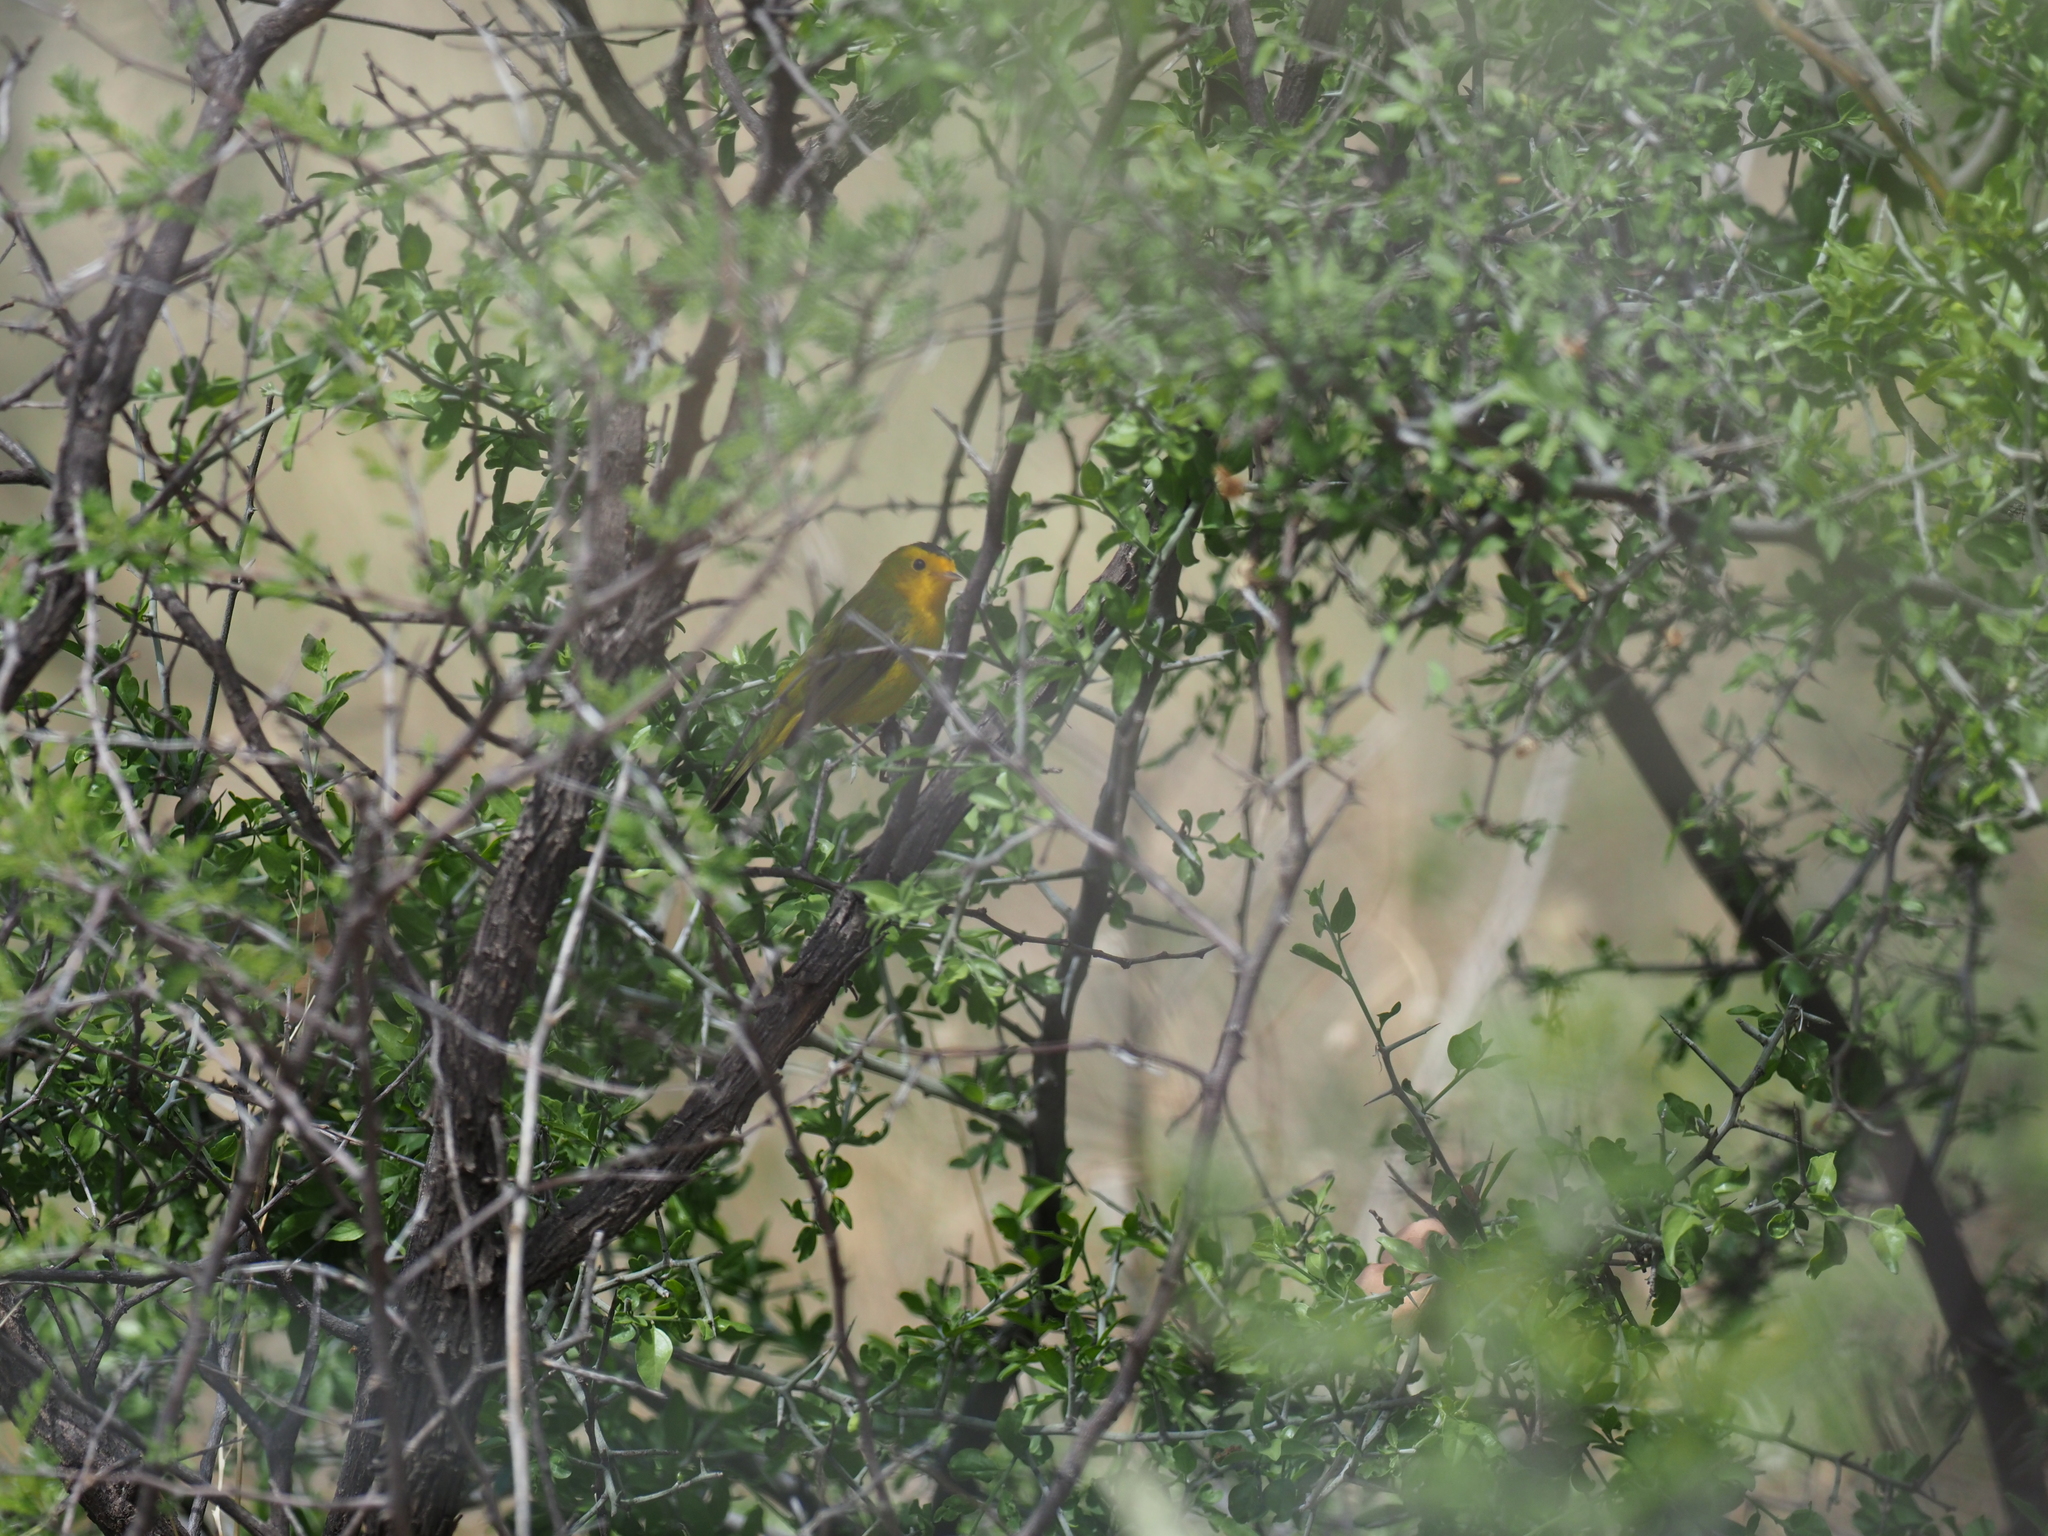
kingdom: Animalia
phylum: Chordata
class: Aves
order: Passeriformes
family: Parulidae
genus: Cardellina
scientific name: Cardellina pusilla
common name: Wilson's warbler
